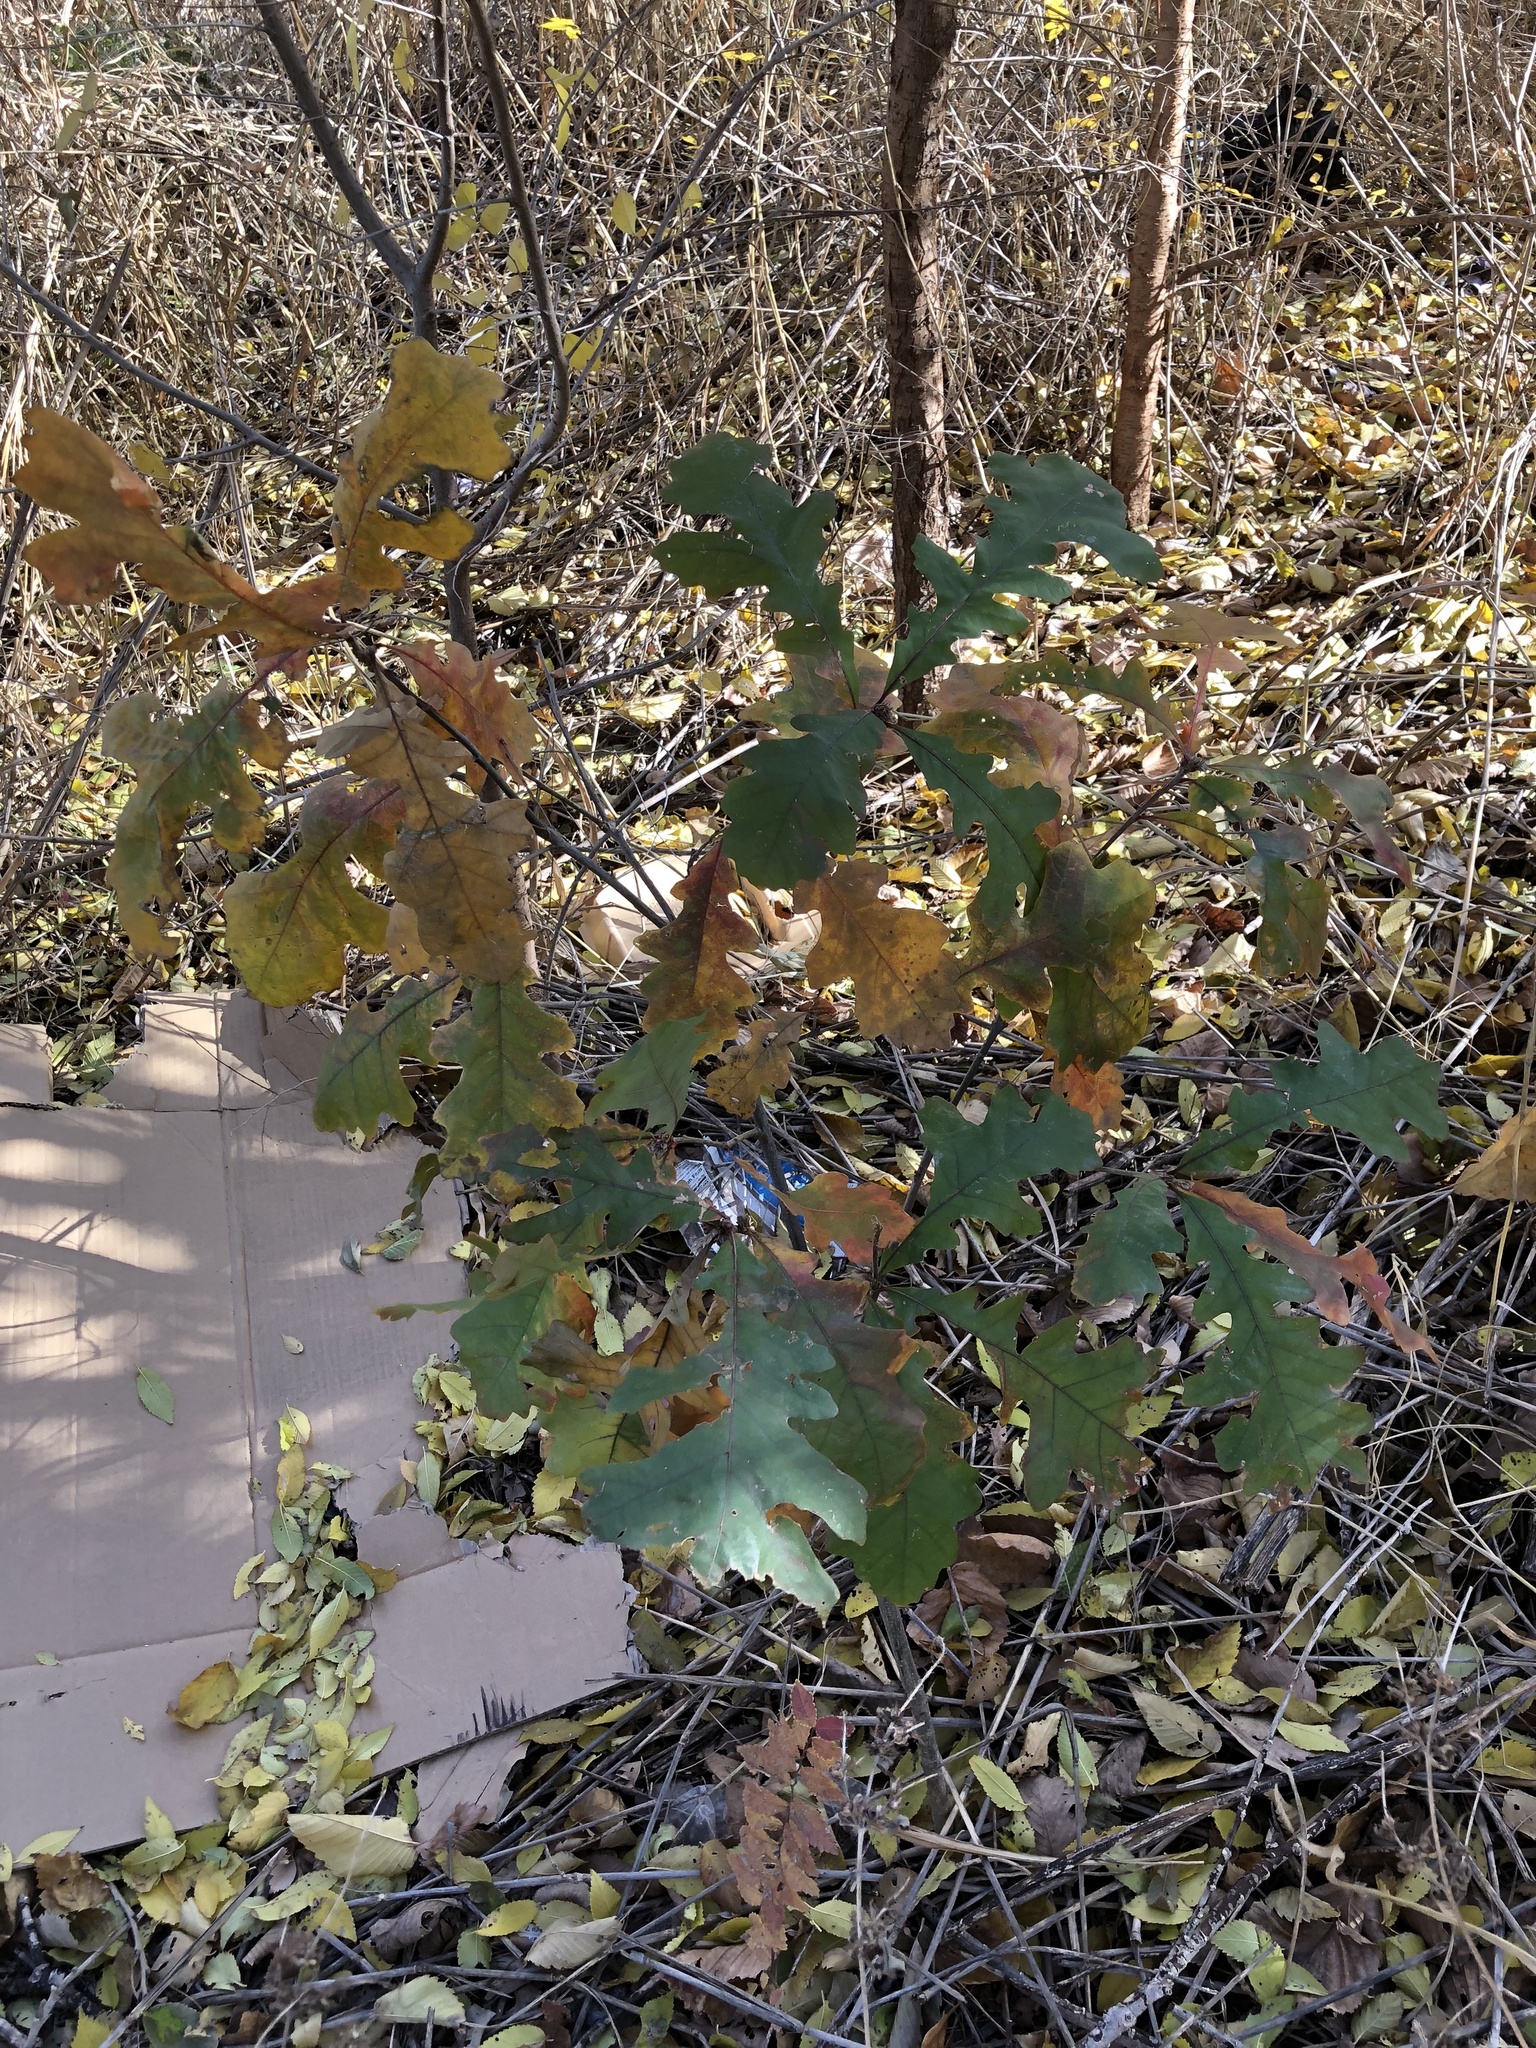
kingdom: Plantae
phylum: Tracheophyta
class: Magnoliopsida
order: Fagales
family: Fagaceae
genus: Quercus
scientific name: Quercus macrocarpa
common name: Bur oak
